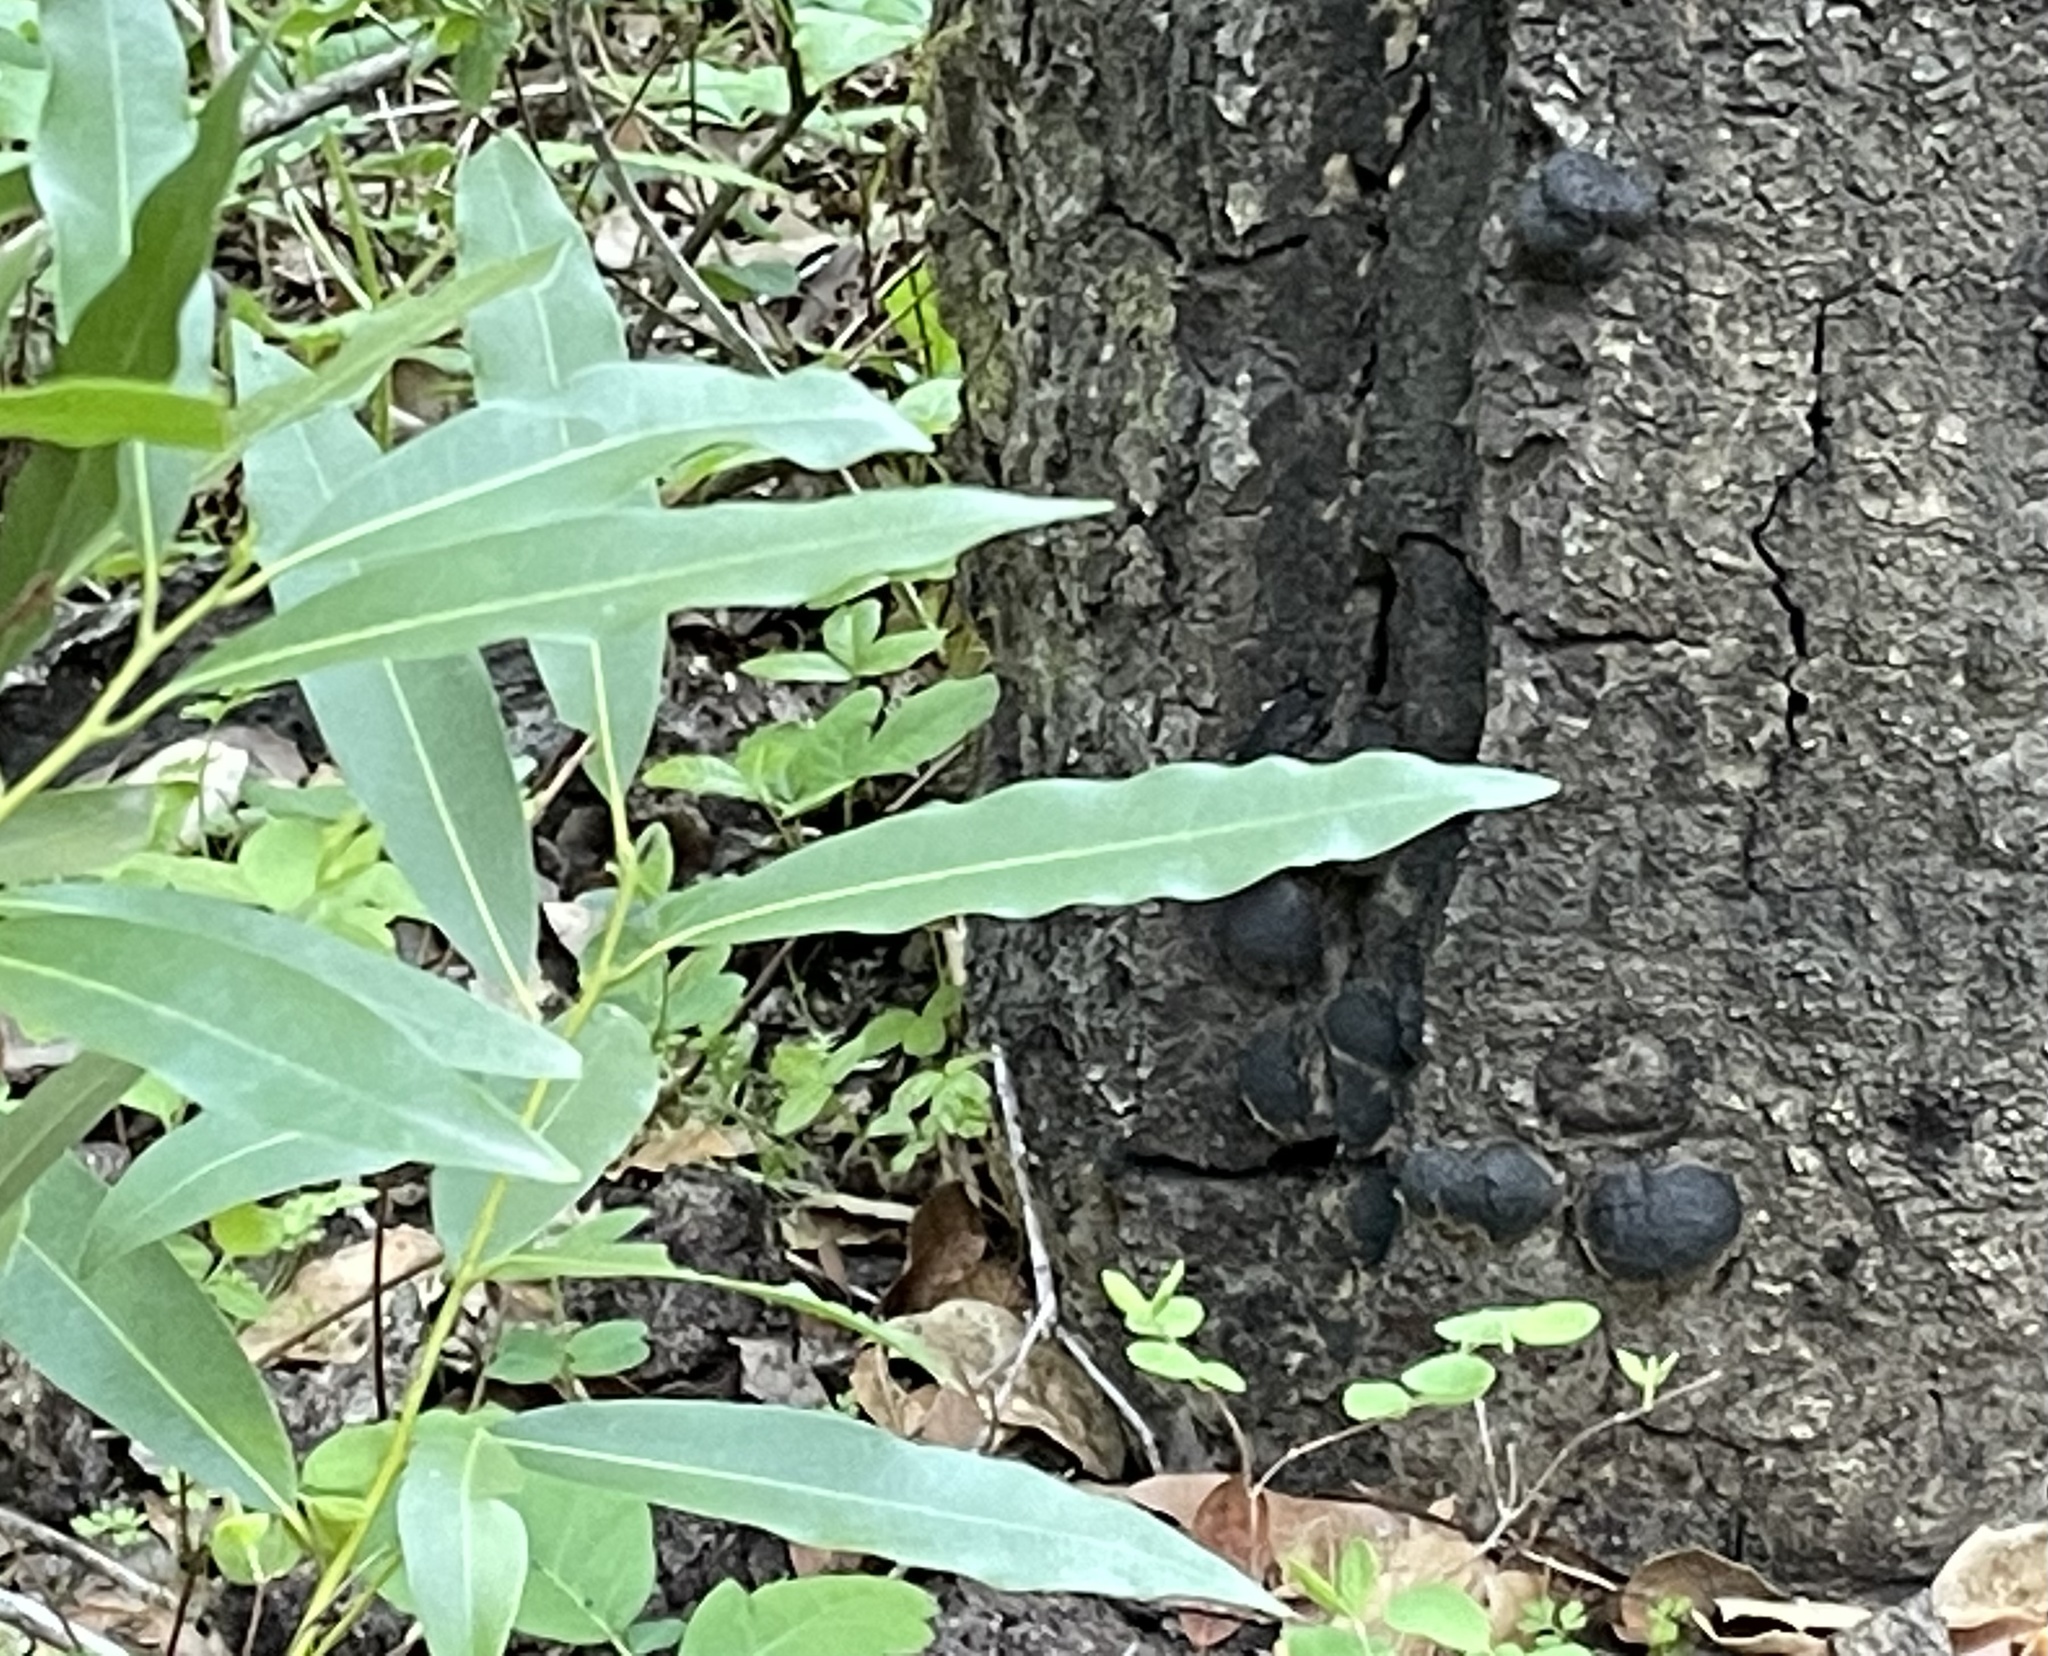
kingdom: Plantae
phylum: Tracheophyta
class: Magnoliopsida
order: Laurales
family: Lauraceae
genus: Umbellularia
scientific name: Umbellularia californica
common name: California bay
